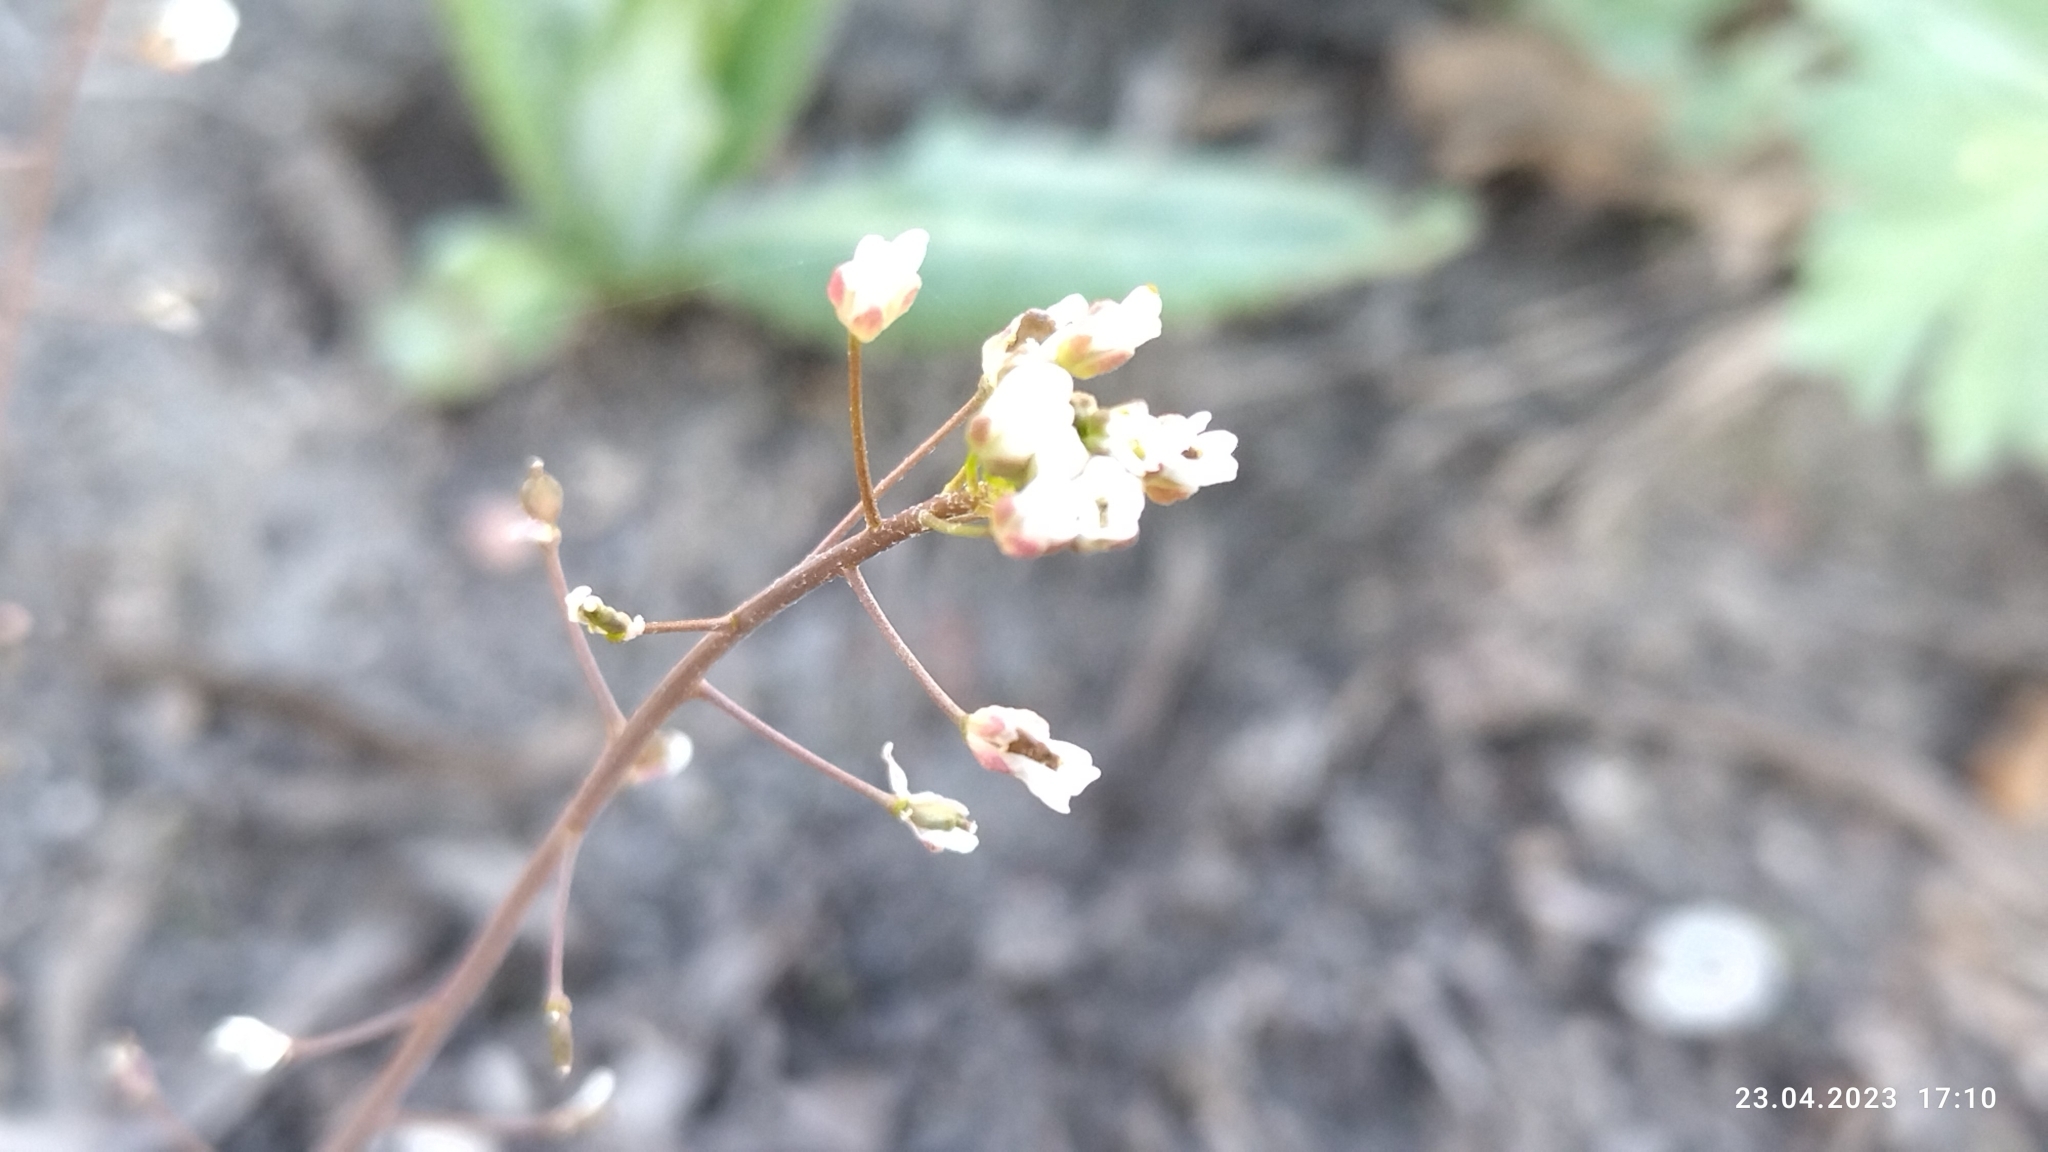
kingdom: Plantae
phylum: Tracheophyta
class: Magnoliopsida
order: Brassicales
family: Brassicaceae
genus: Capsella
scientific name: Capsella bursa-pastoris
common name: Shepherd's purse
